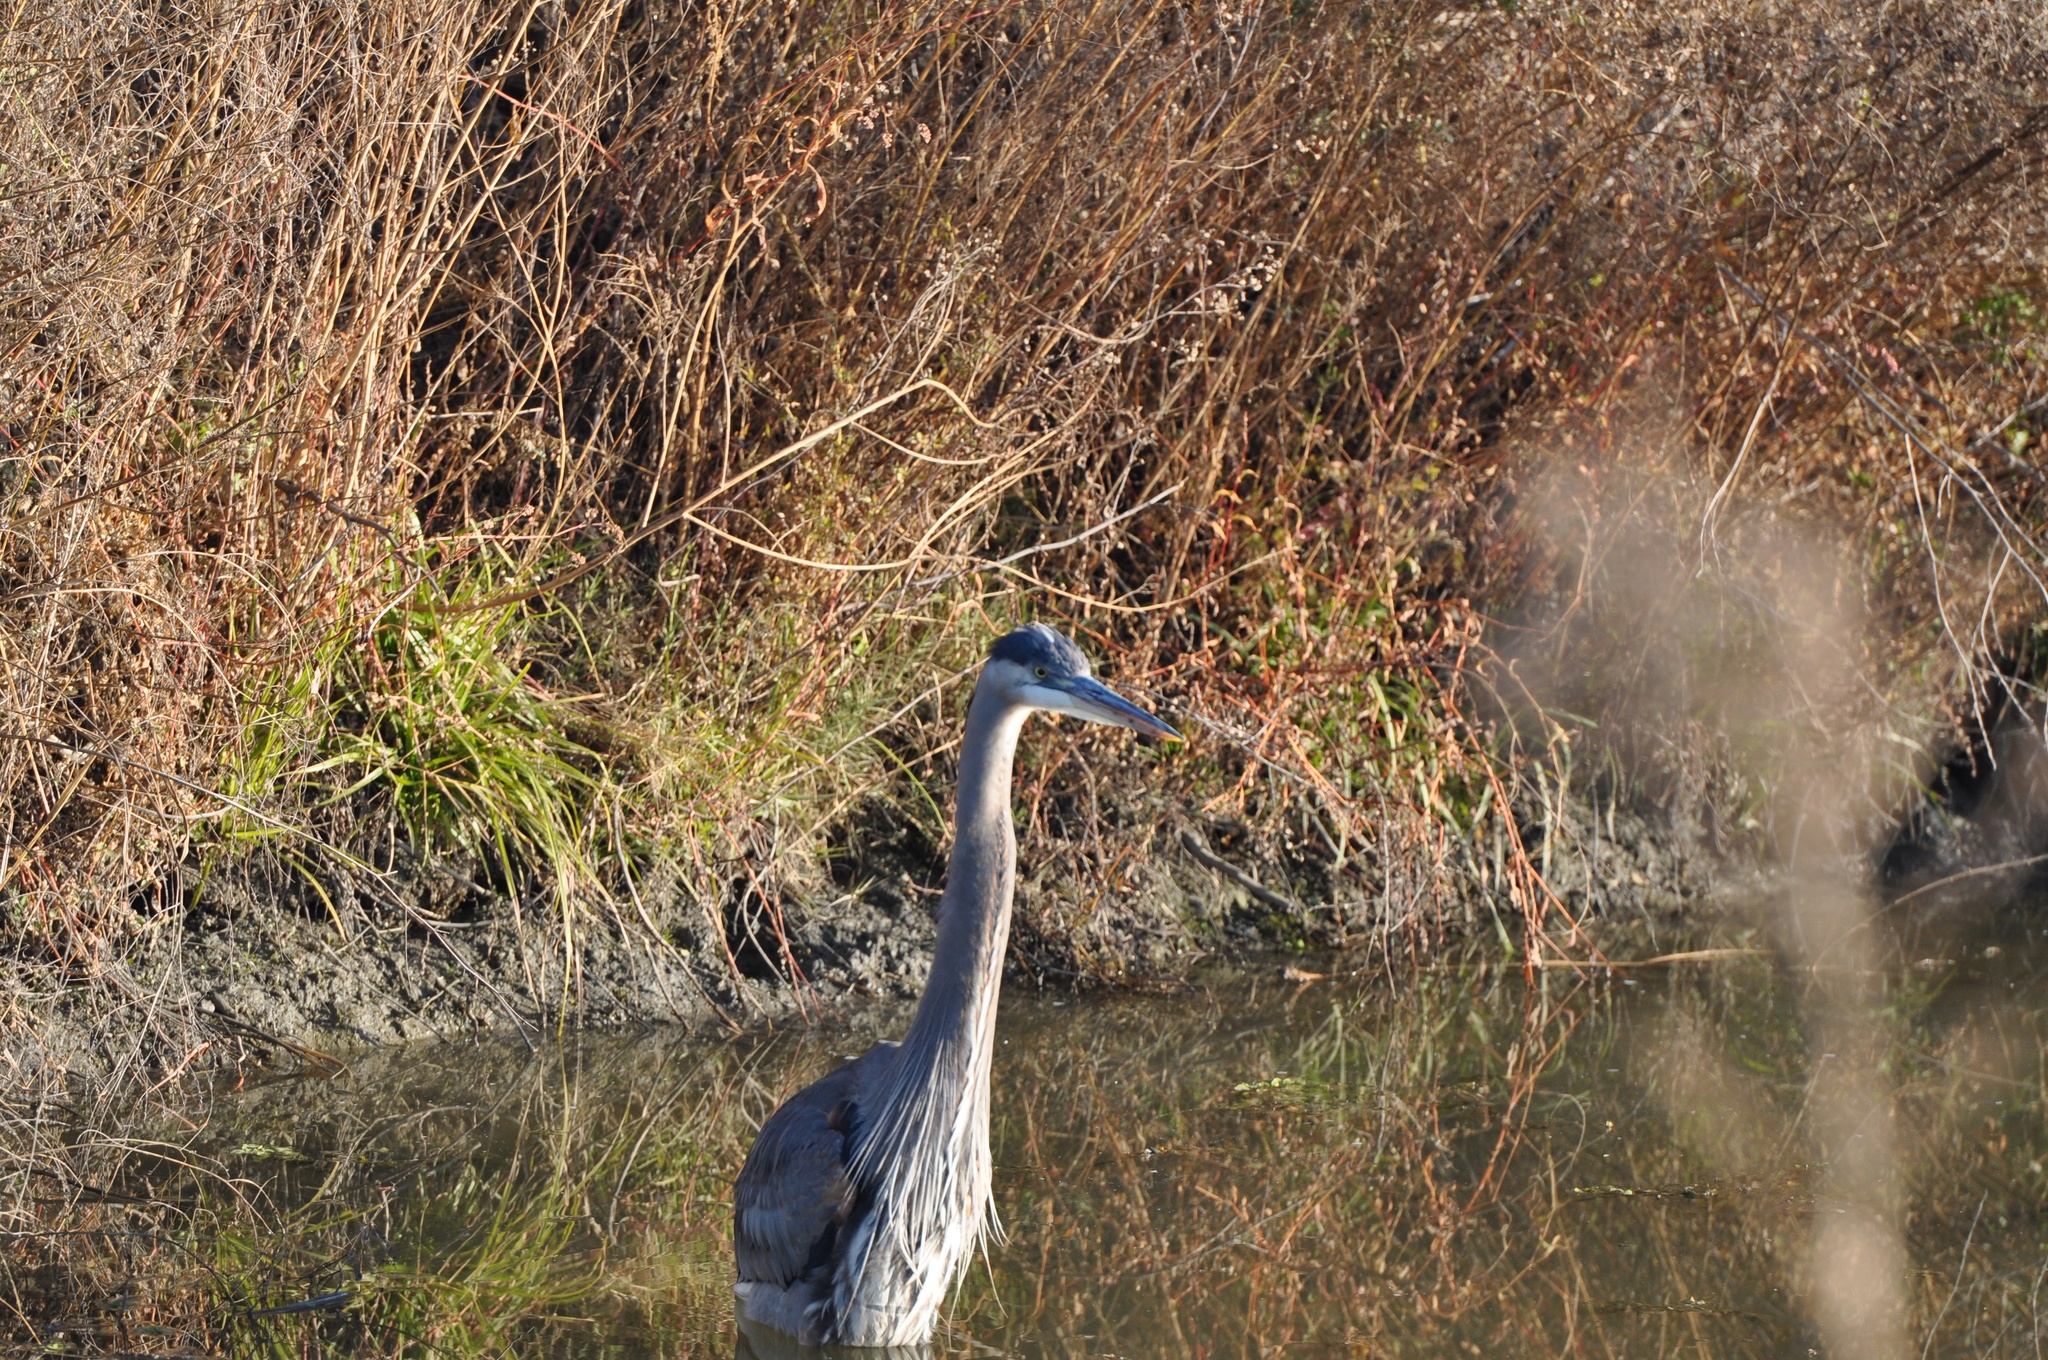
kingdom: Animalia
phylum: Chordata
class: Aves
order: Pelecaniformes
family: Ardeidae
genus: Ardea
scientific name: Ardea herodias
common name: Great blue heron
